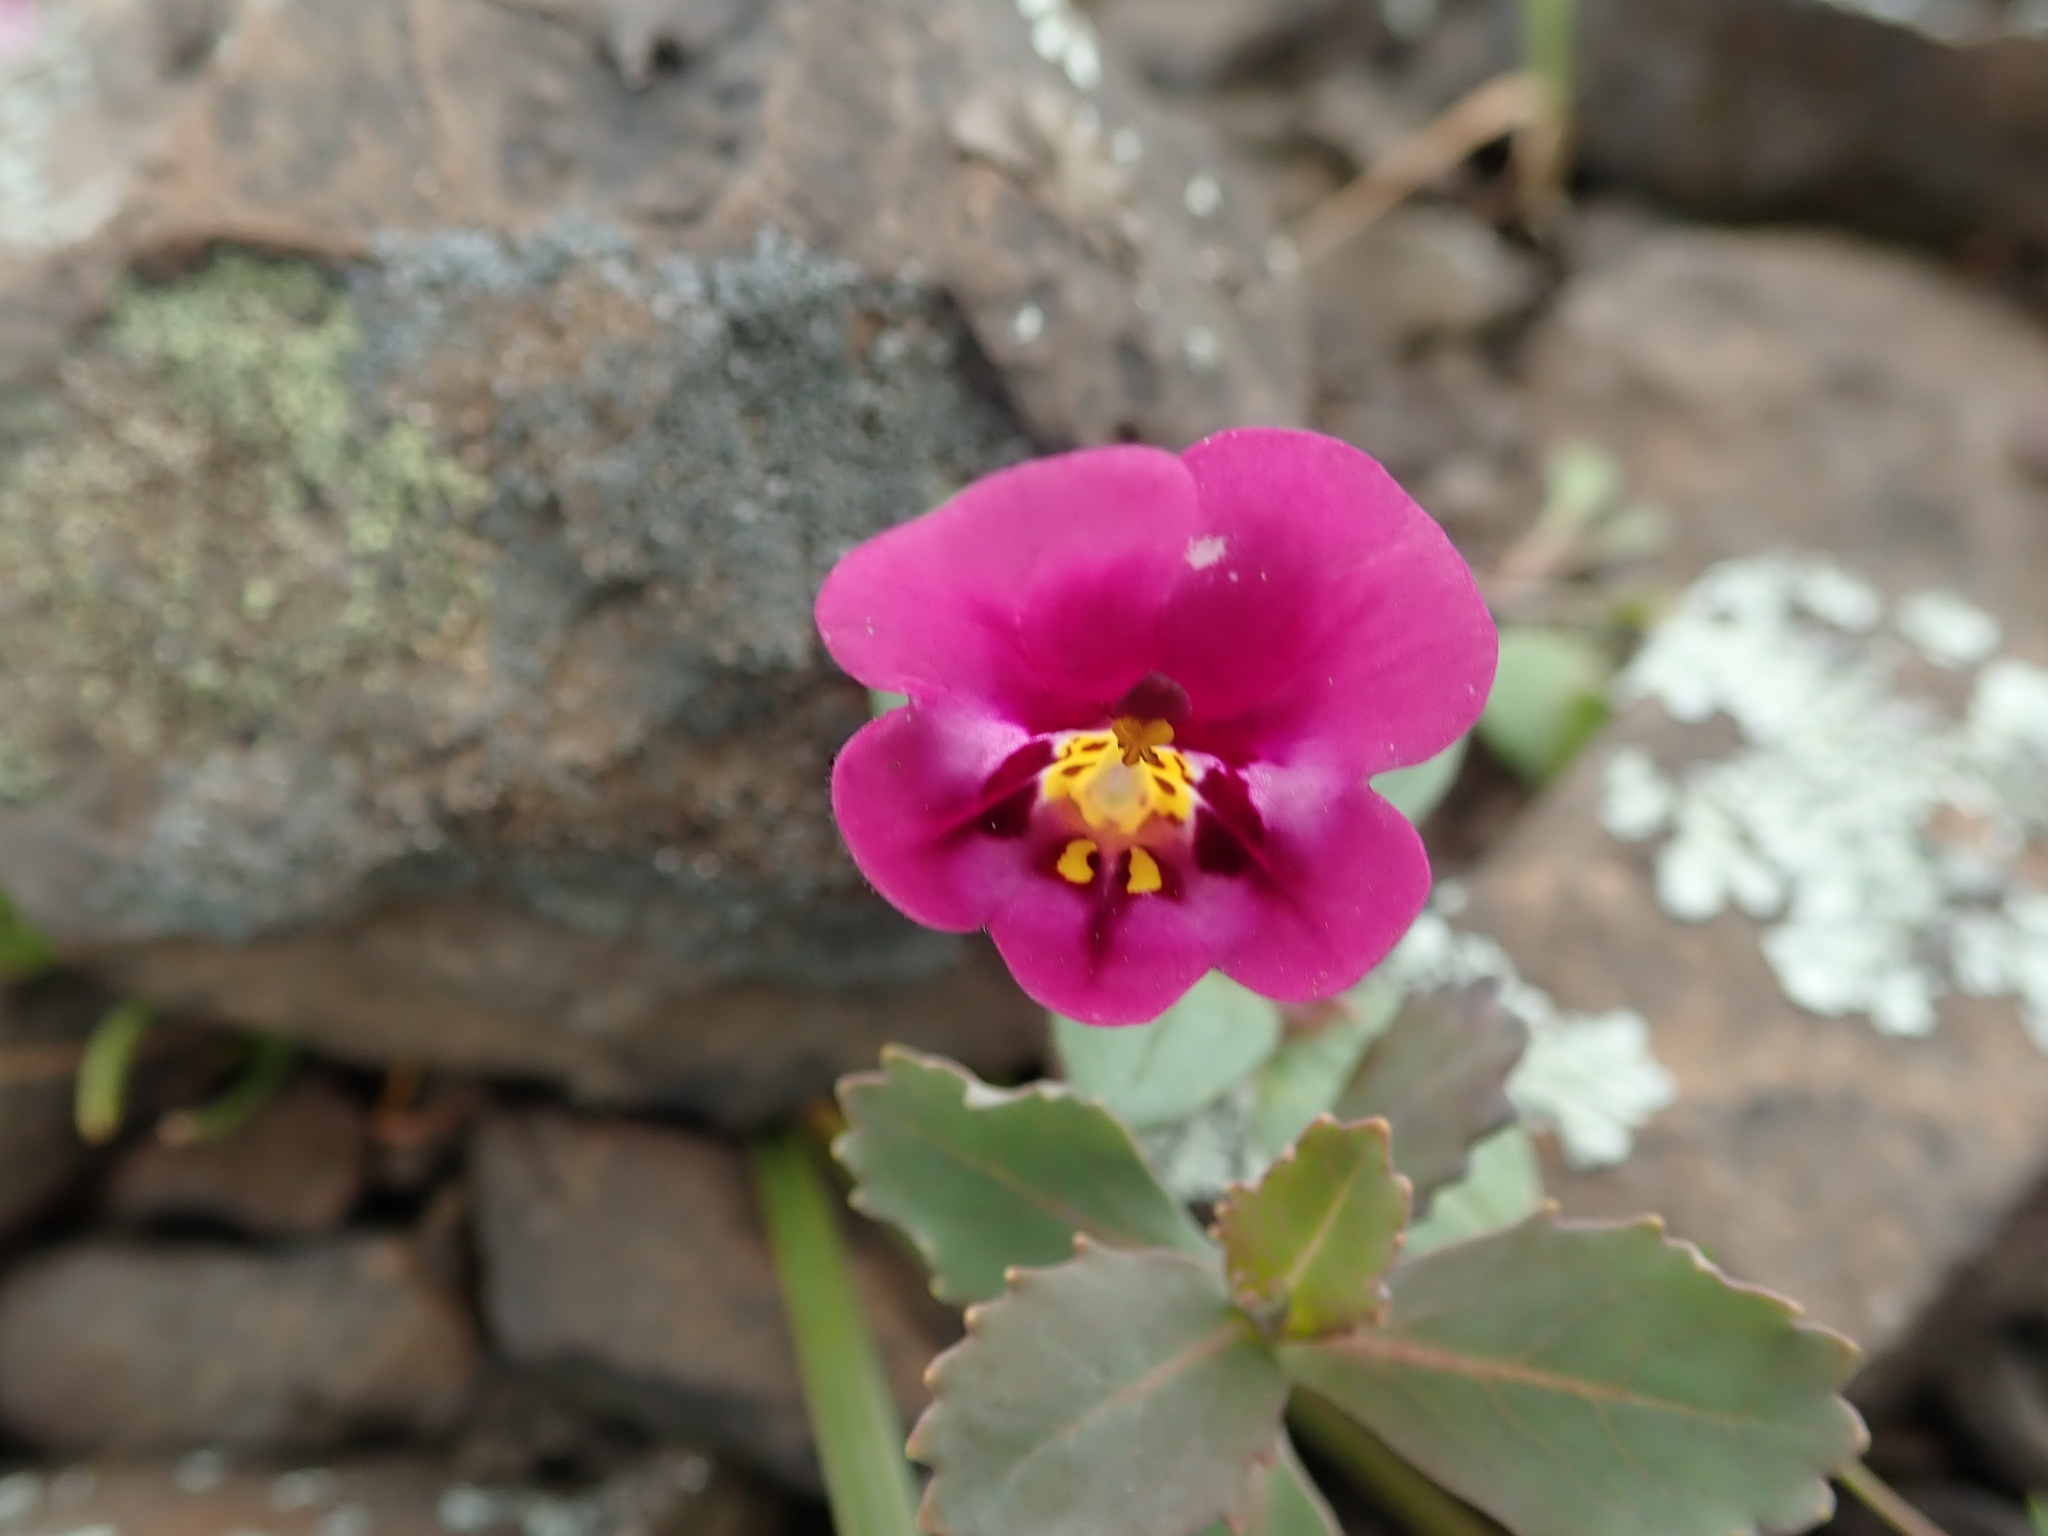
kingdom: Plantae
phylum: Tracheophyta
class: Magnoliopsida
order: Lamiales
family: Phrymaceae
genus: Diplacus
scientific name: Diplacus kelloggii
